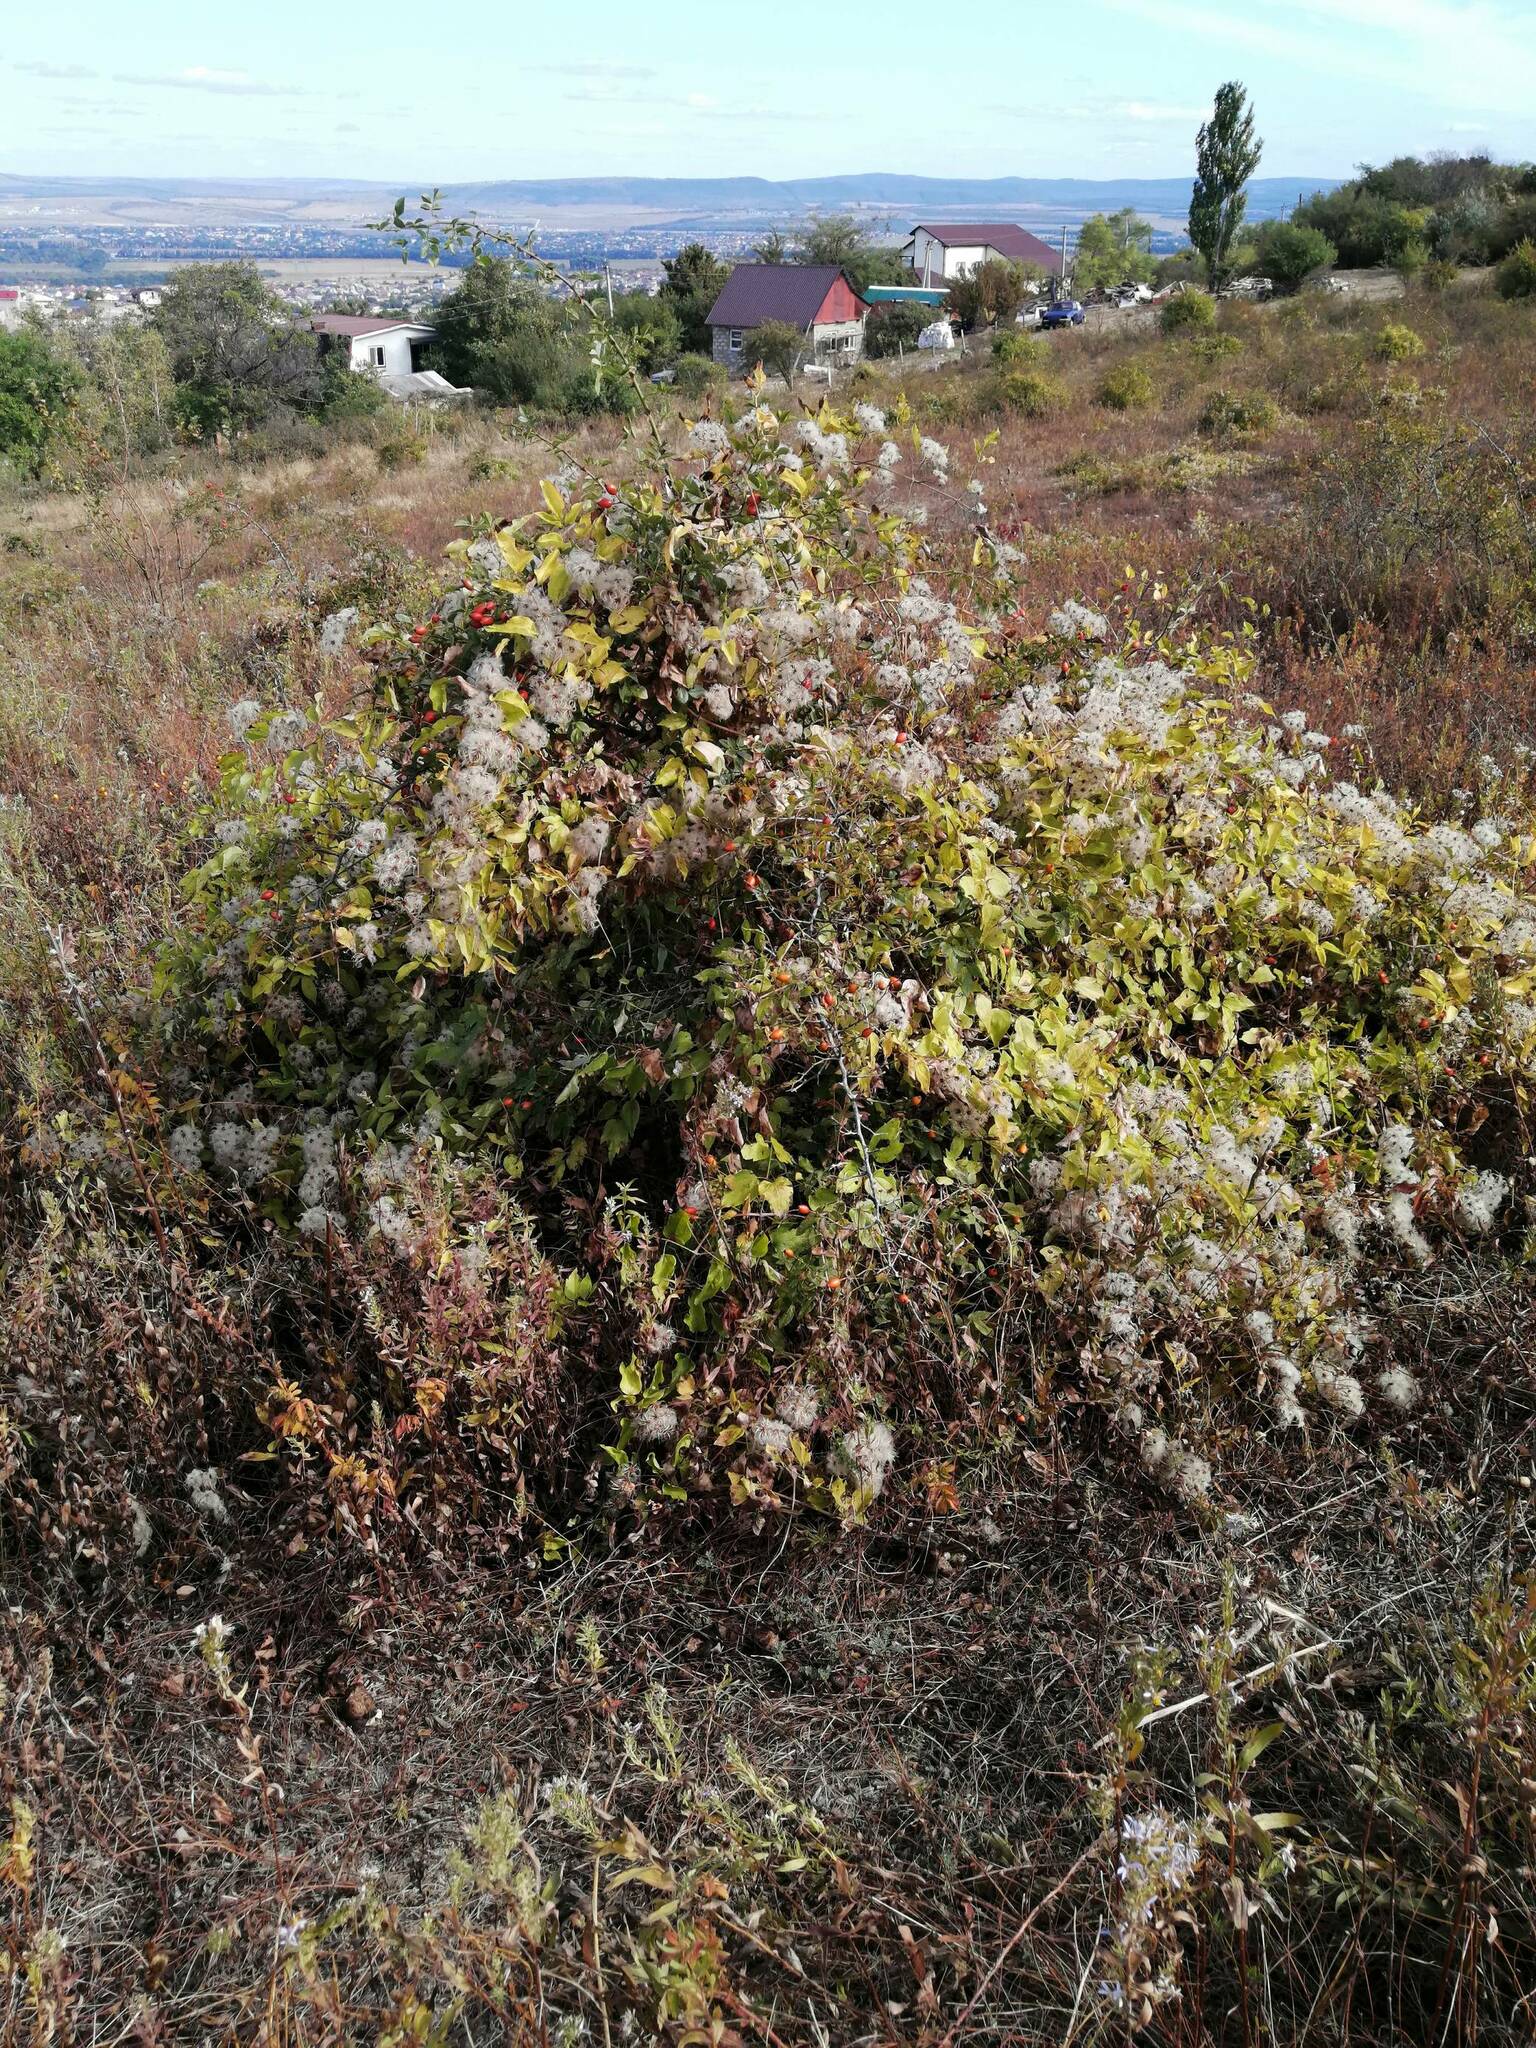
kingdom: Plantae
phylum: Tracheophyta
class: Magnoliopsida
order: Ranunculales
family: Ranunculaceae
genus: Clematis
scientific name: Clematis vitalba
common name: Evergreen clematis
